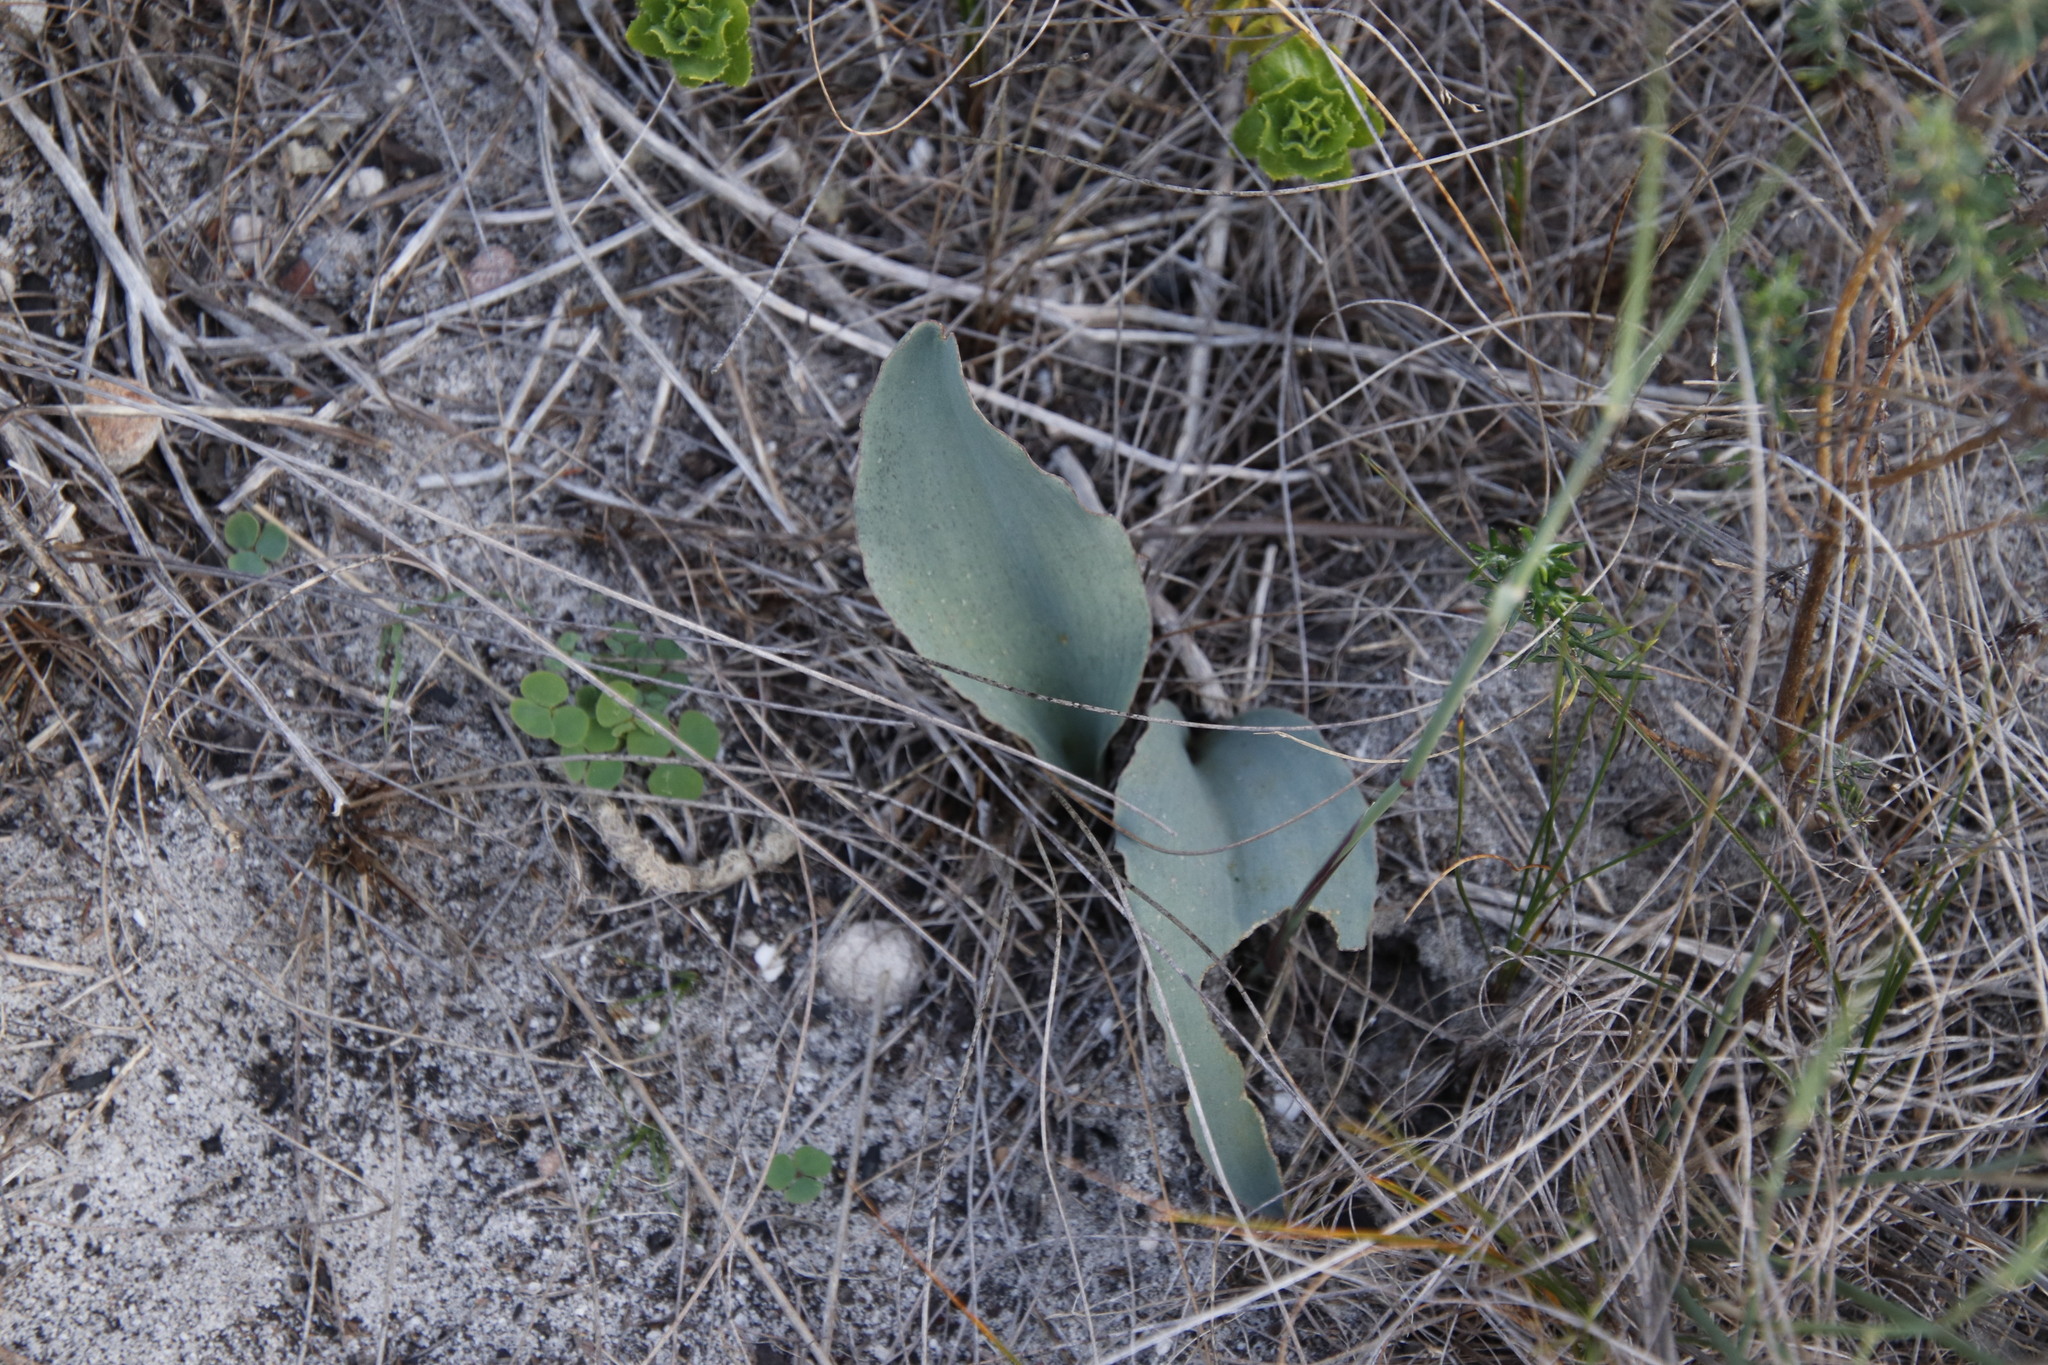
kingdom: Plantae
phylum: Tracheophyta
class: Liliopsida
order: Asparagales
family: Asparagaceae
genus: Eriospermum
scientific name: Eriospermum lanceifolium
